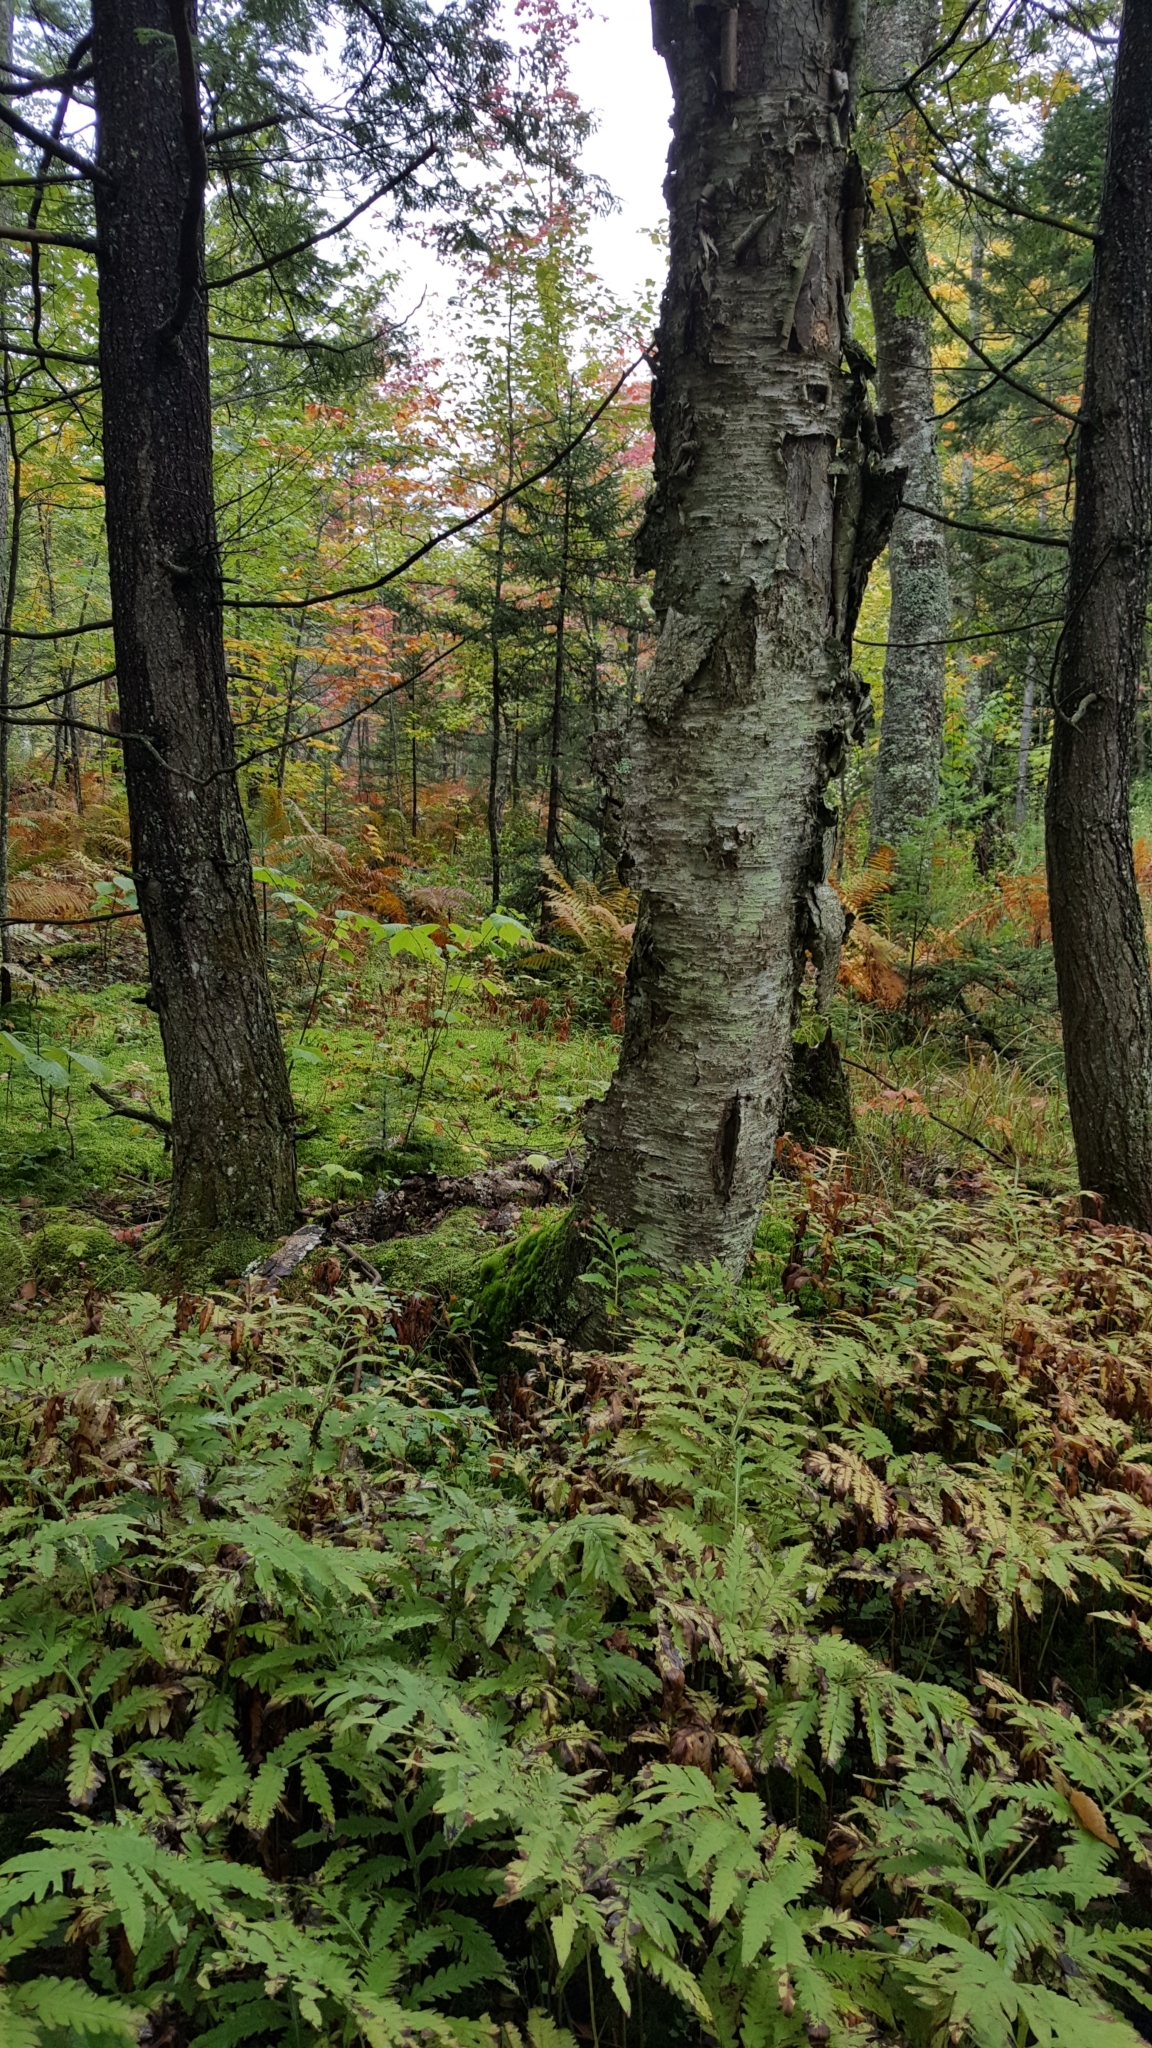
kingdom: Plantae
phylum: Tracheophyta
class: Magnoliopsida
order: Fagales
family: Betulaceae
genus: Betula
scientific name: Betula alleghaniensis
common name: Yellow birch
